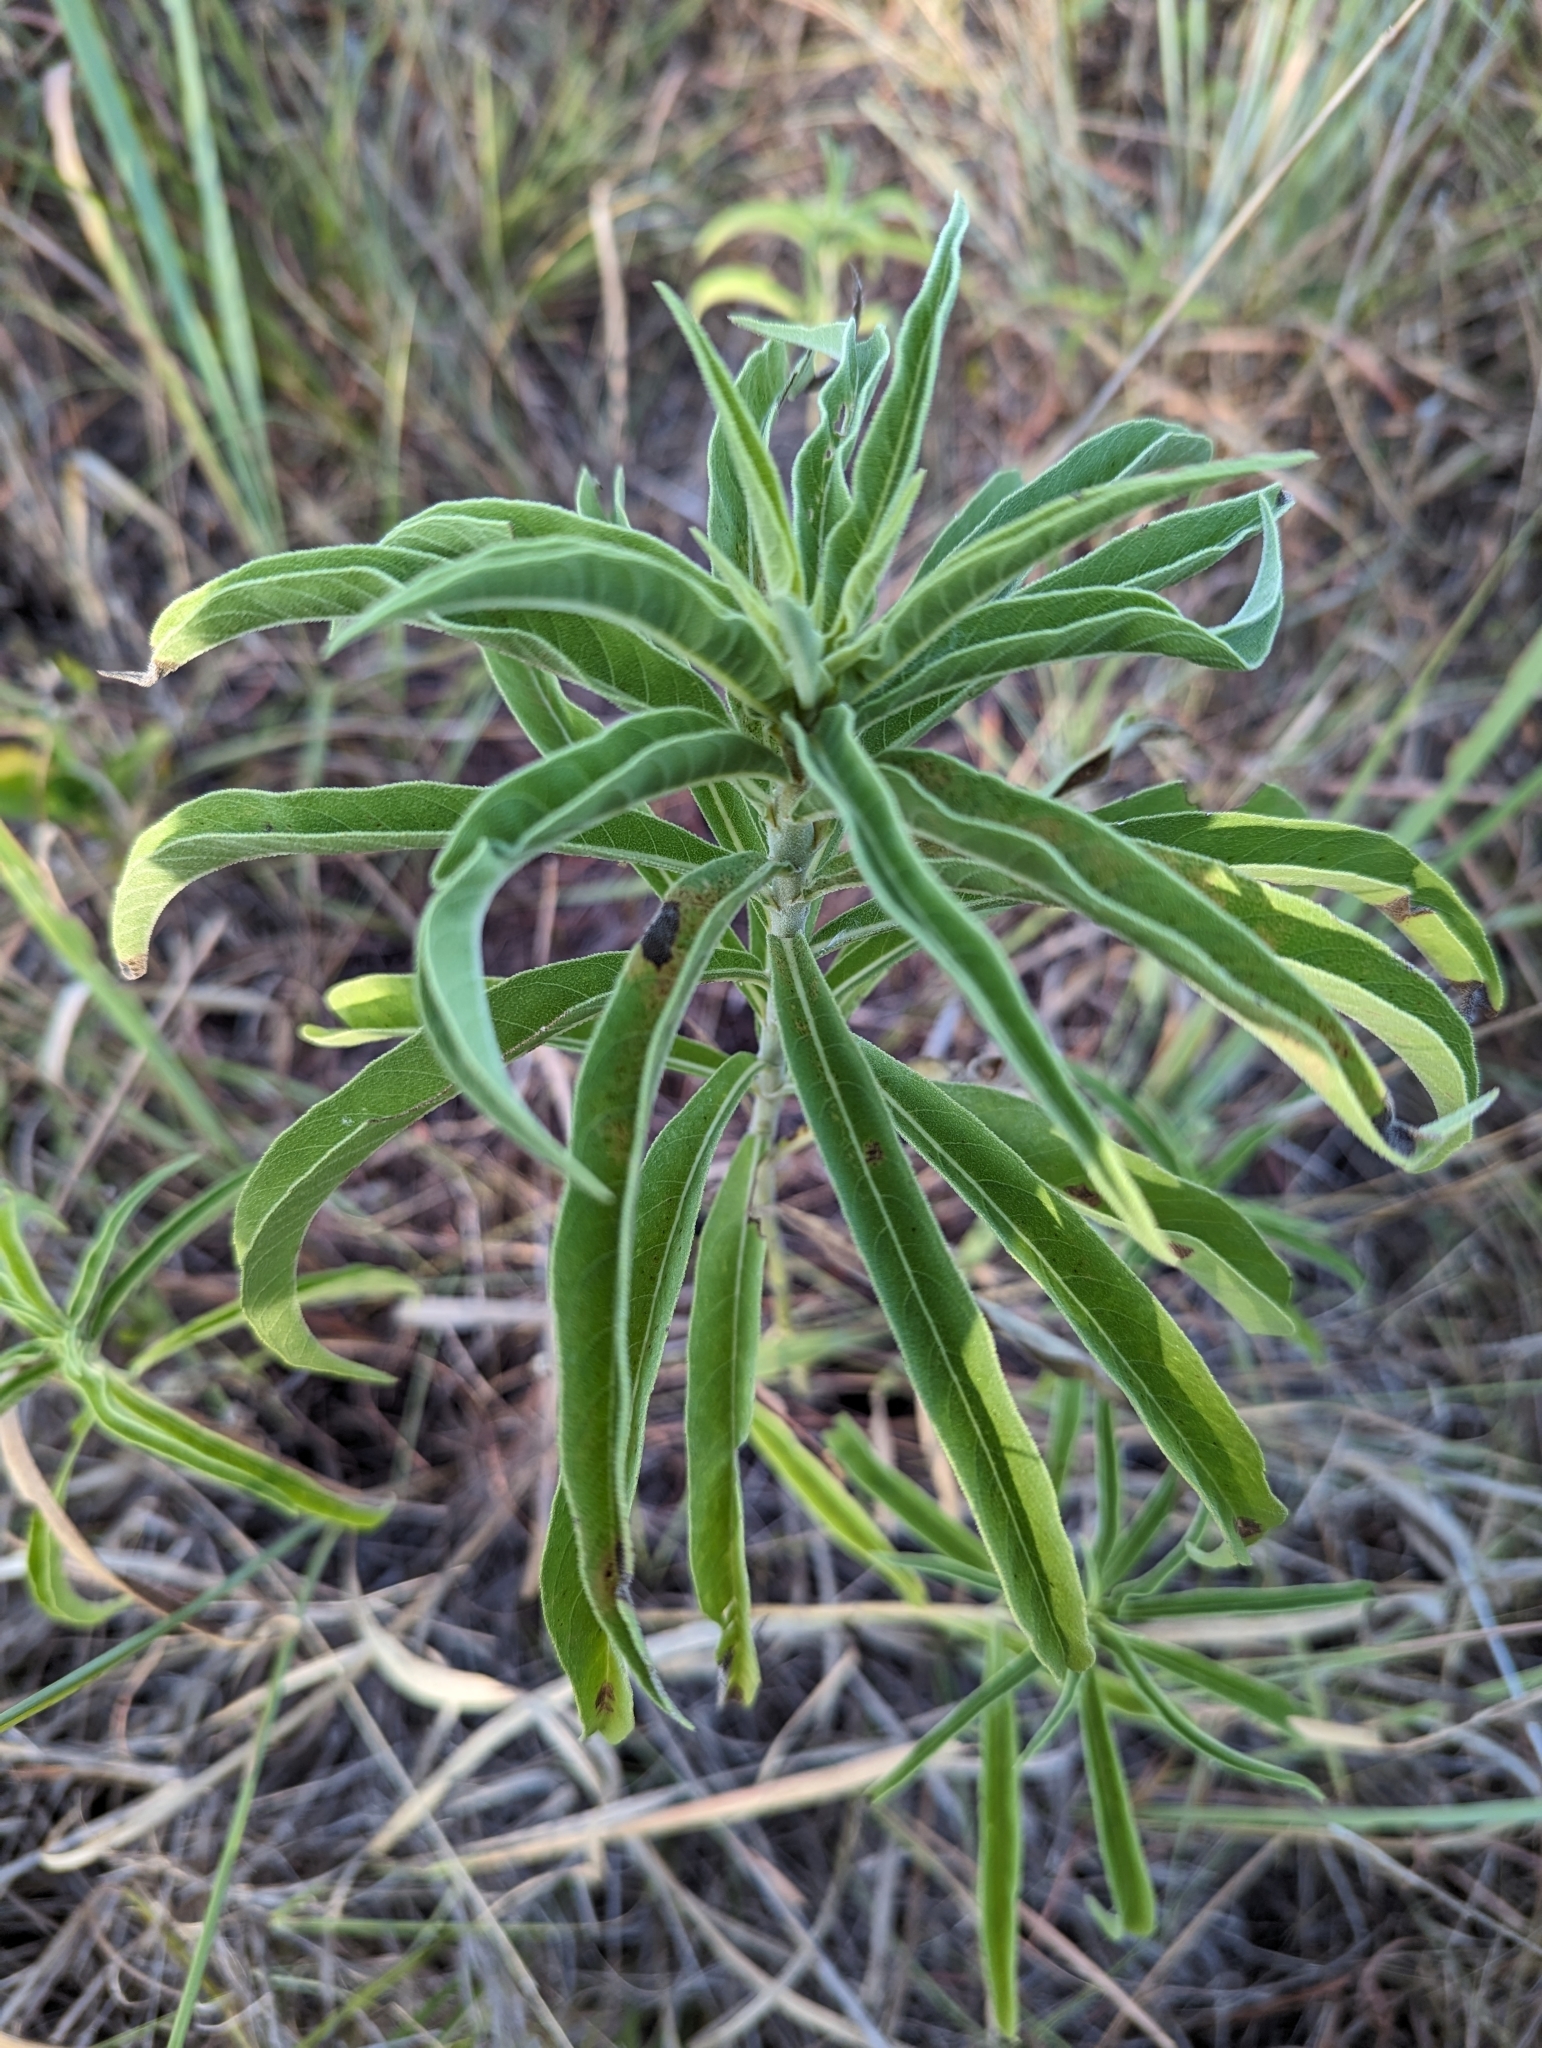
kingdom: Plantae
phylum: Tracheophyta
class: Magnoliopsida
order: Asterales
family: Asteraceae
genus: Helianthus
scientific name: Helianthus maximiliani
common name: Maximilian's sunflower
